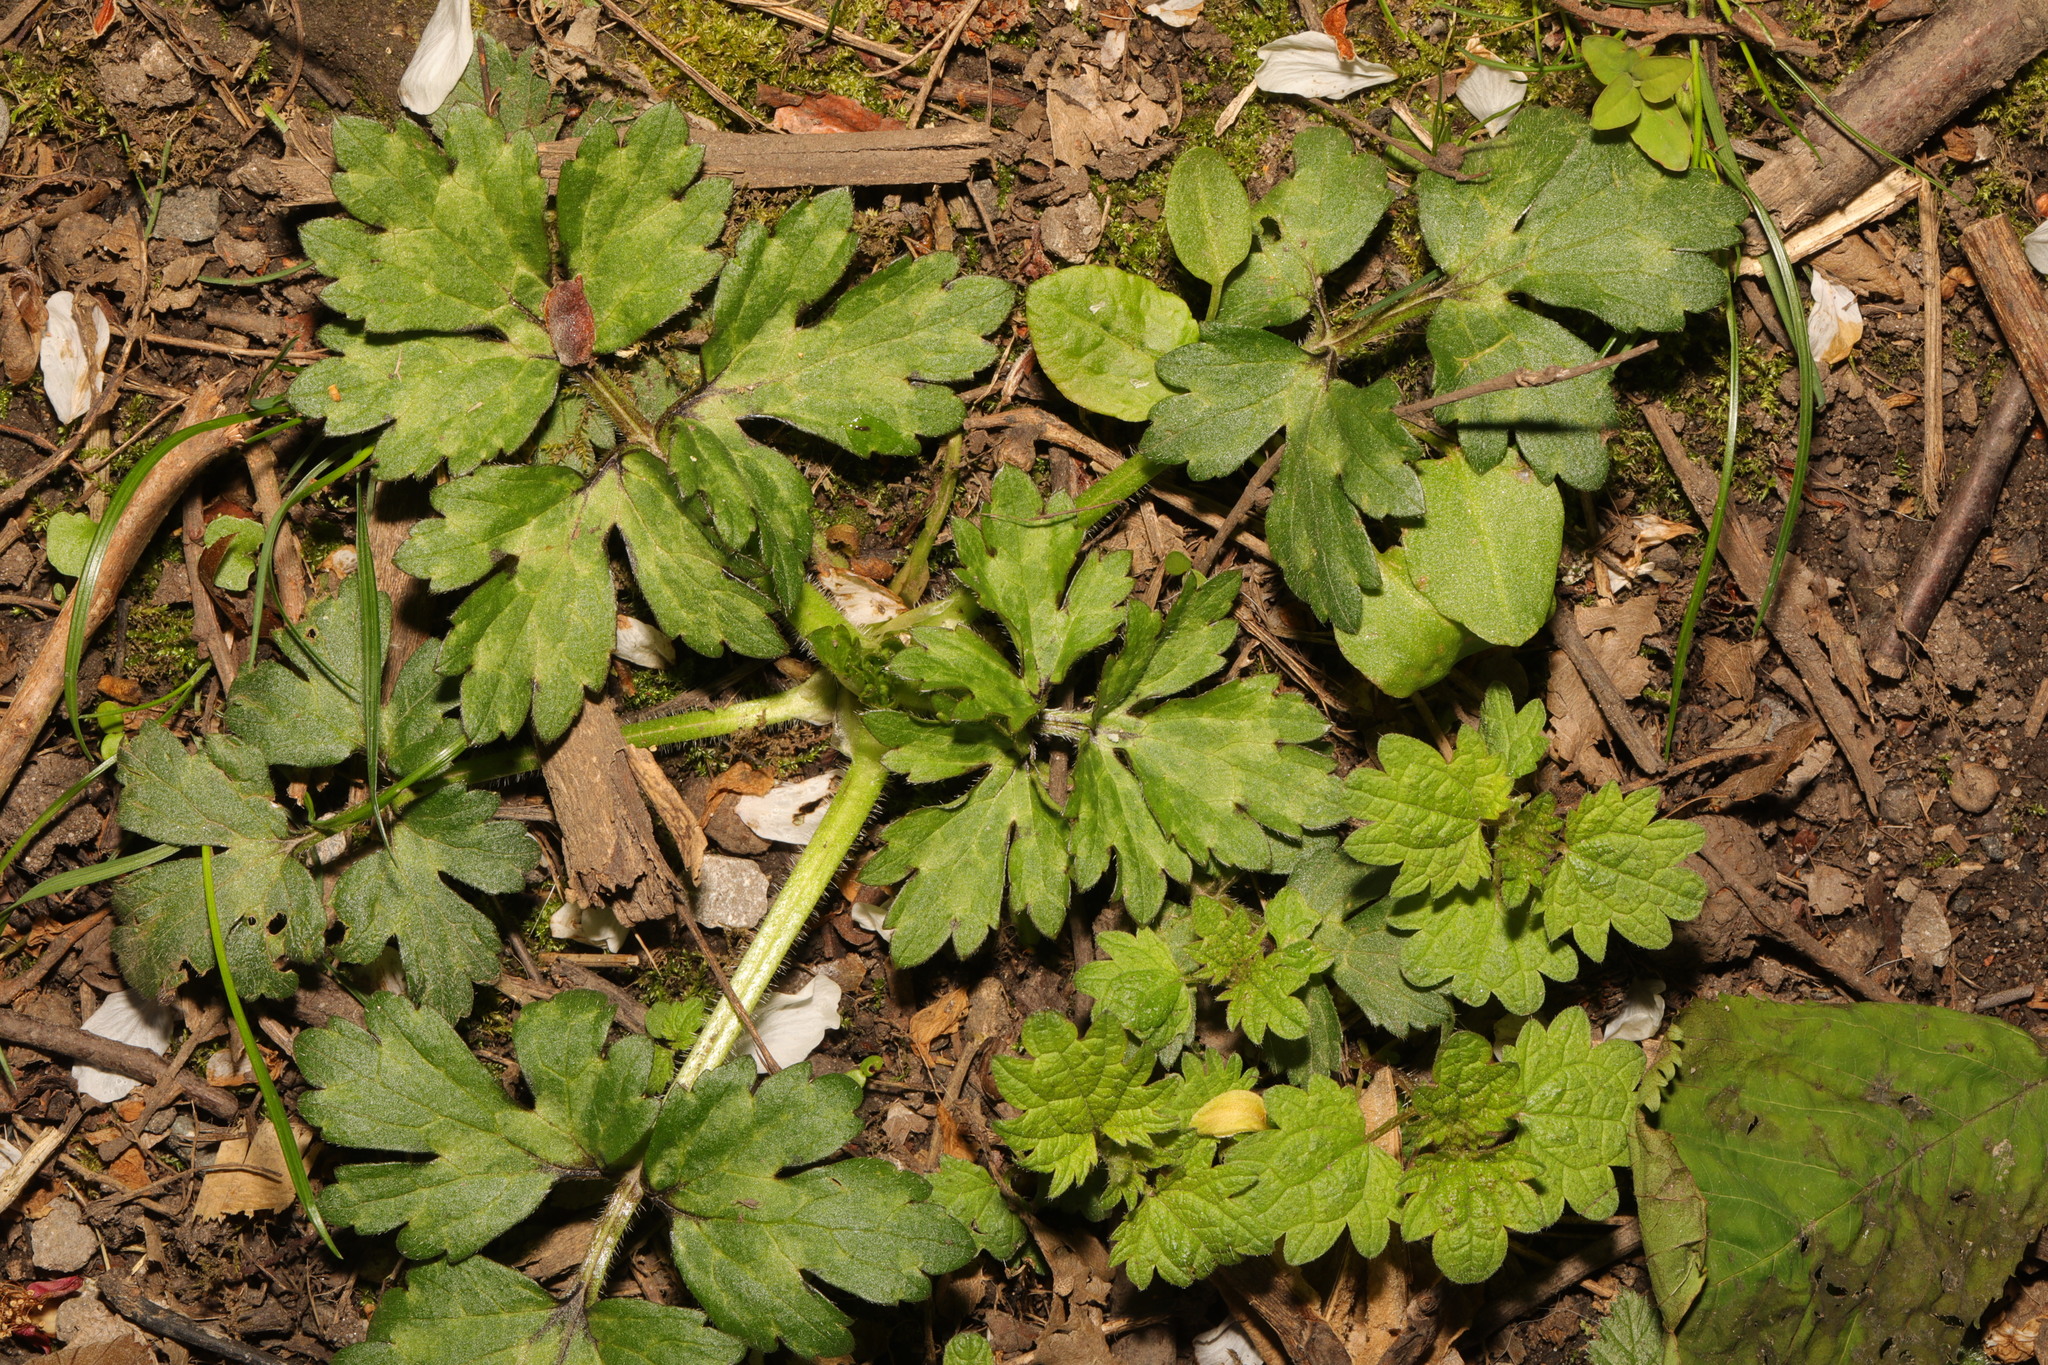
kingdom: Plantae
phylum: Tracheophyta
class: Magnoliopsida
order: Ranunculales
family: Ranunculaceae
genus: Ranunculus
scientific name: Ranunculus repens
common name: Creeping buttercup
